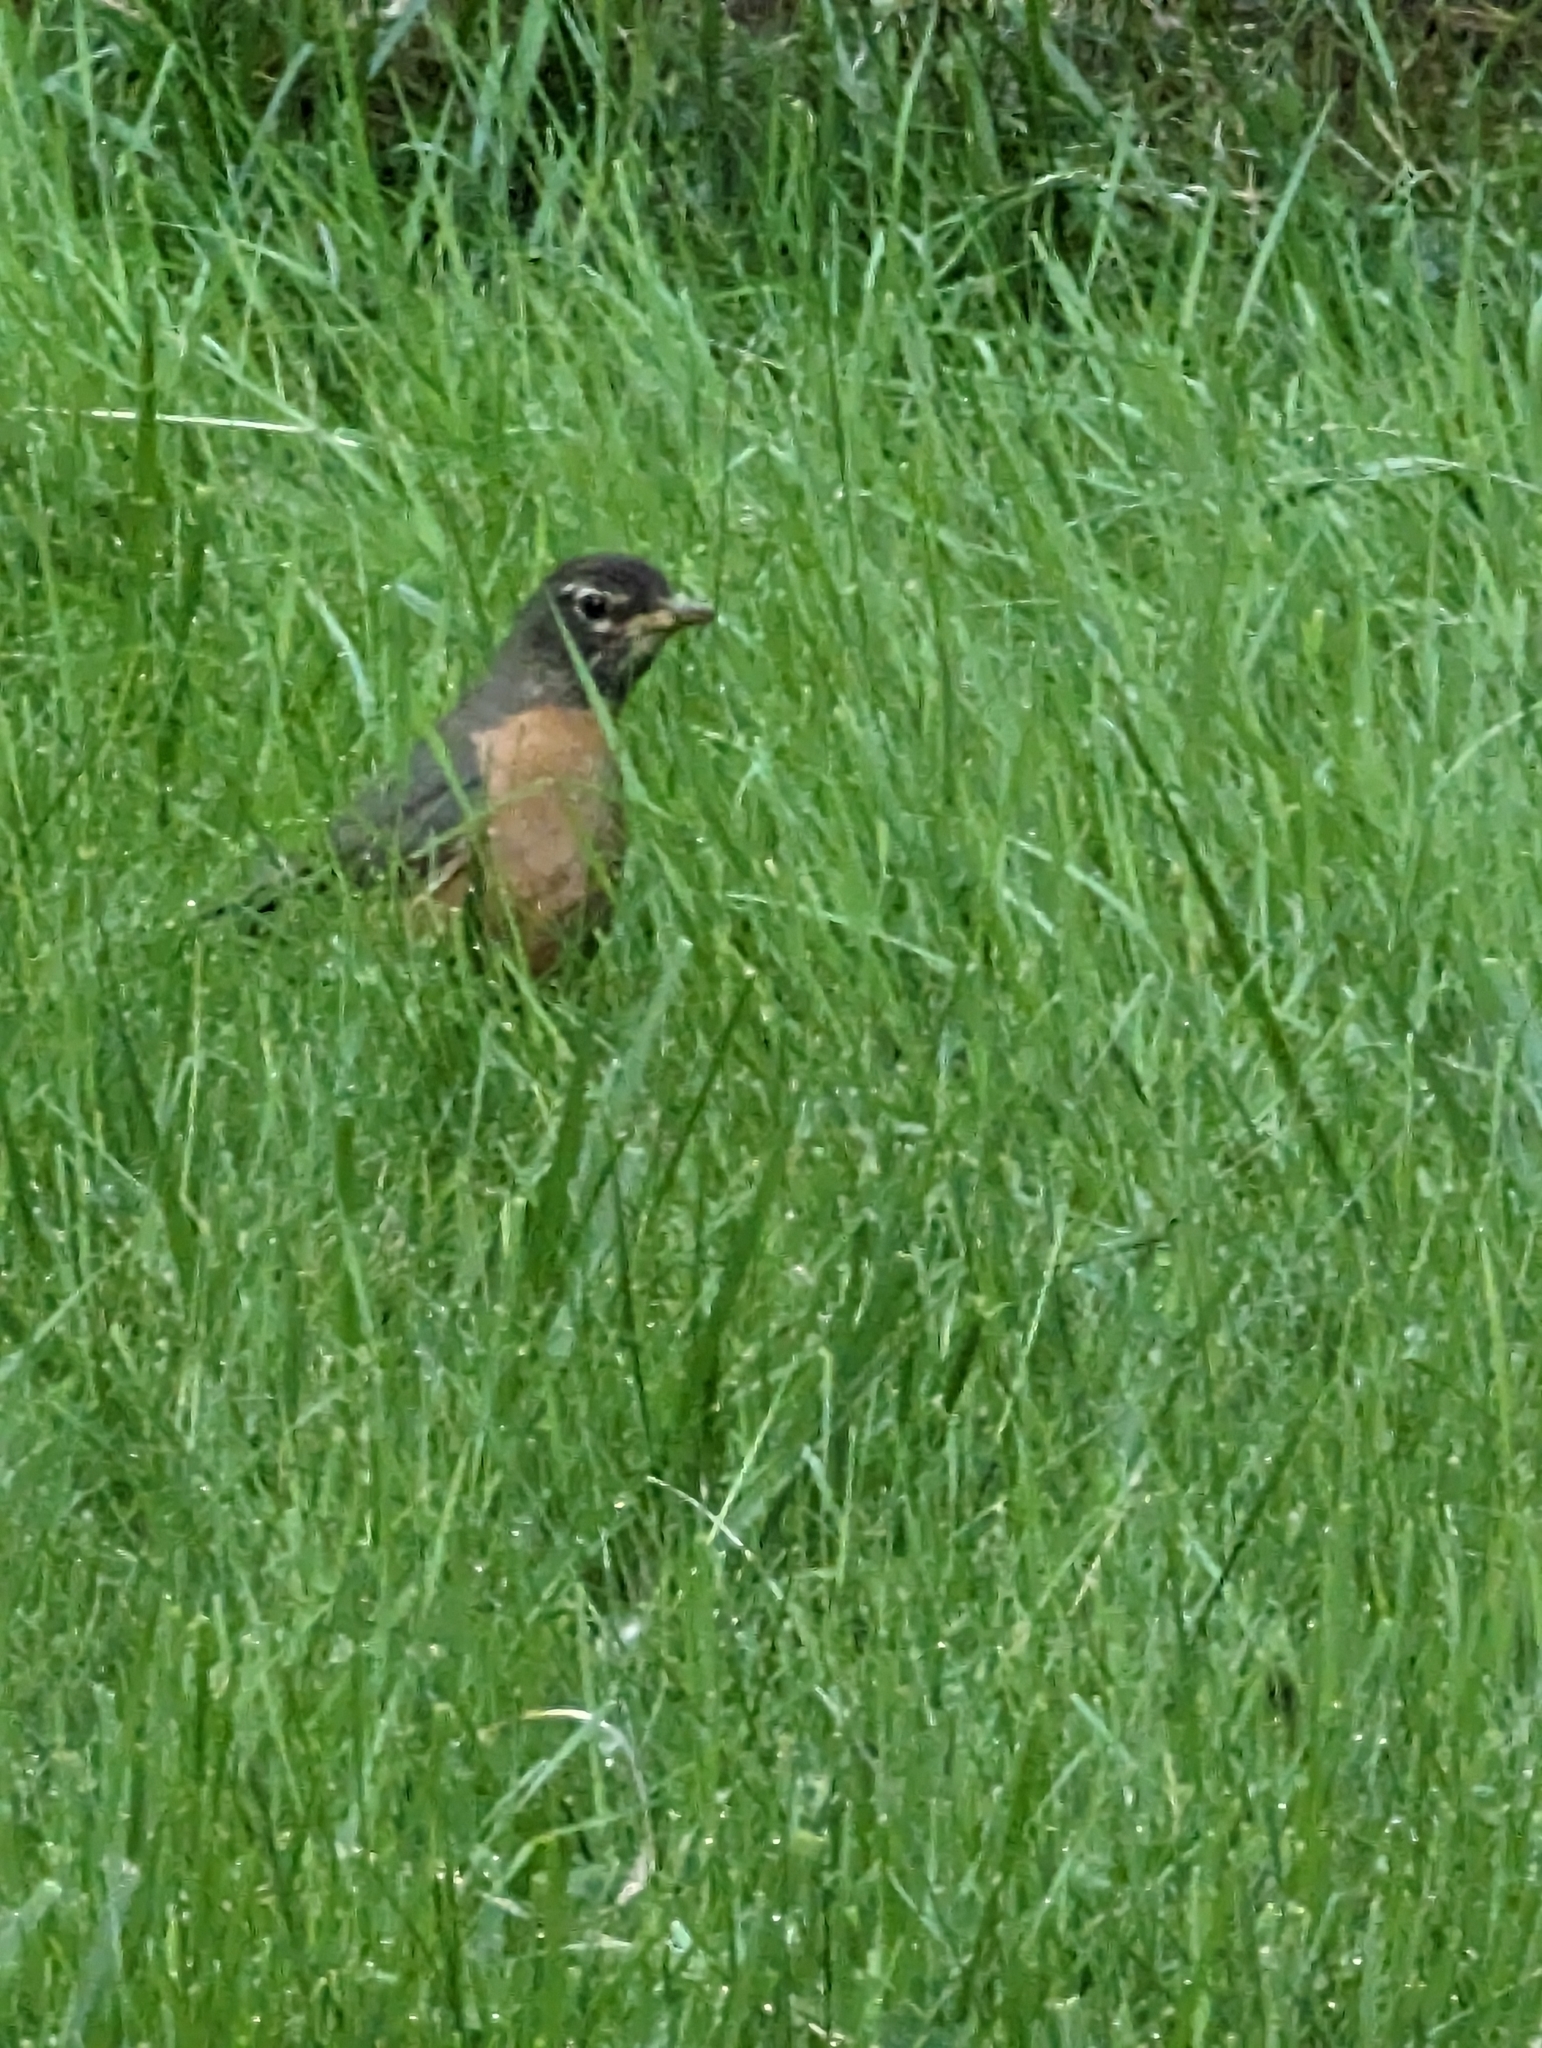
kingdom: Animalia
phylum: Chordata
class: Aves
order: Passeriformes
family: Turdidae
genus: Turdus
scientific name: Turdus migratorius
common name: American robin
